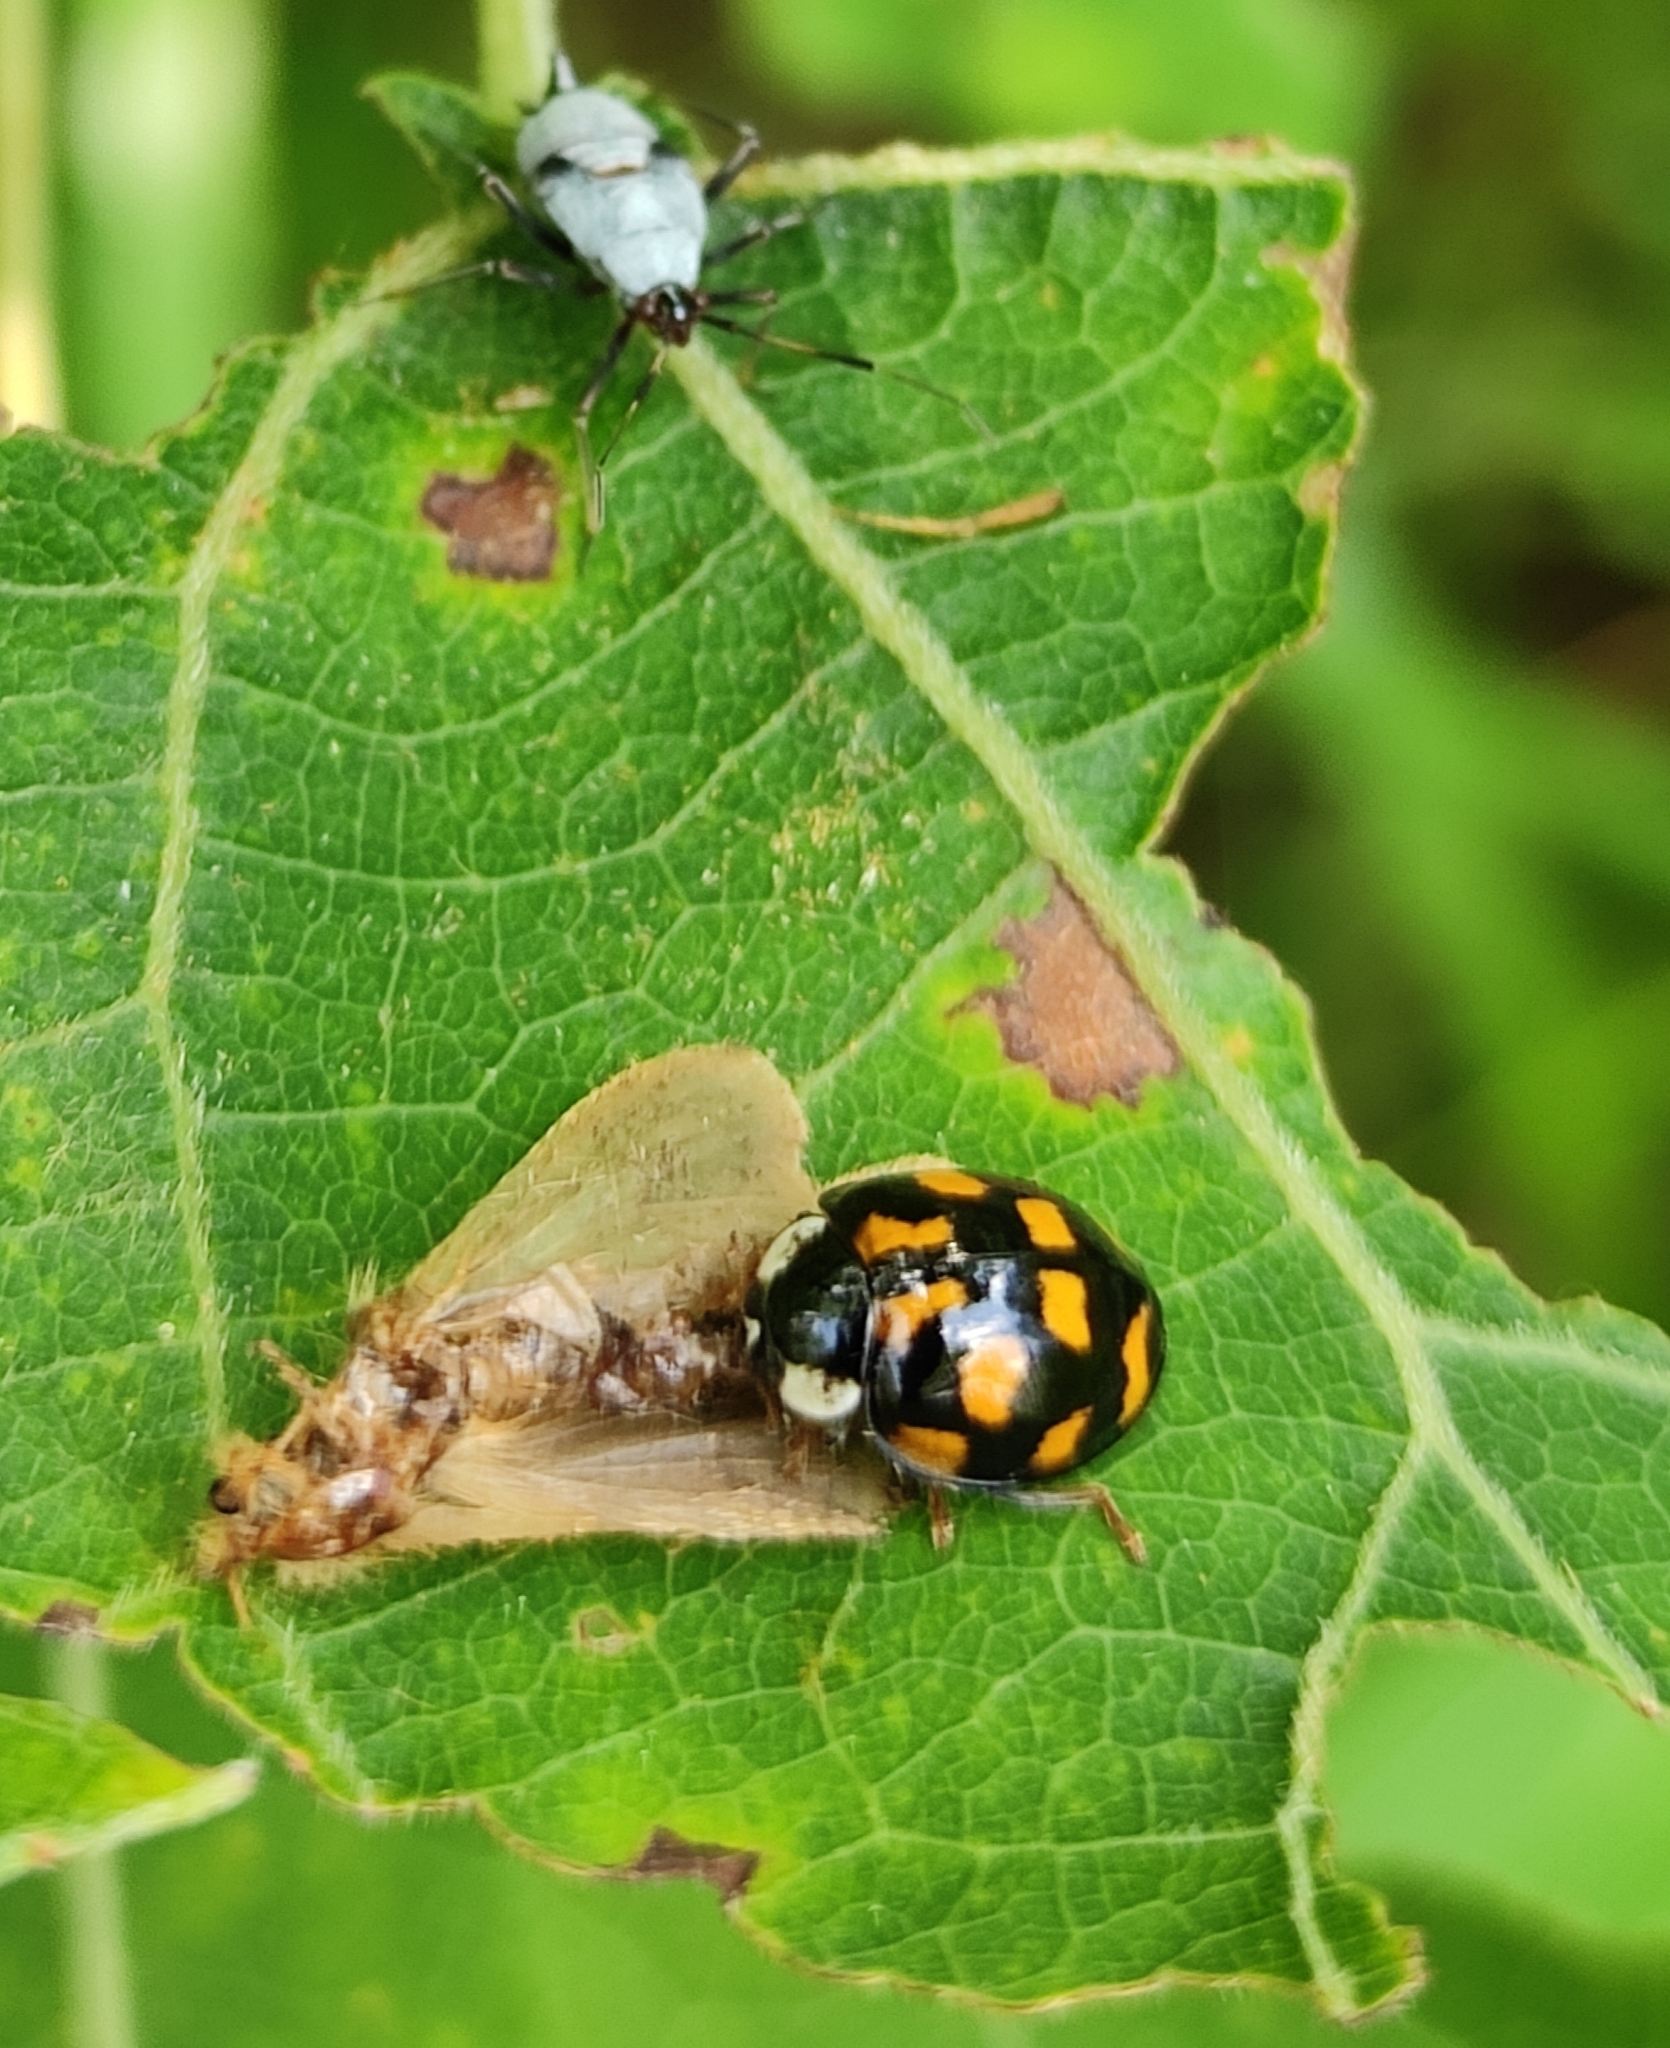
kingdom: Animalia
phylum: Arthropoda
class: Insecta
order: Coleoptera
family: Coccinellidae
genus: Harmonia
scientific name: Harmonia axyridis
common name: Harlequin ladybird
